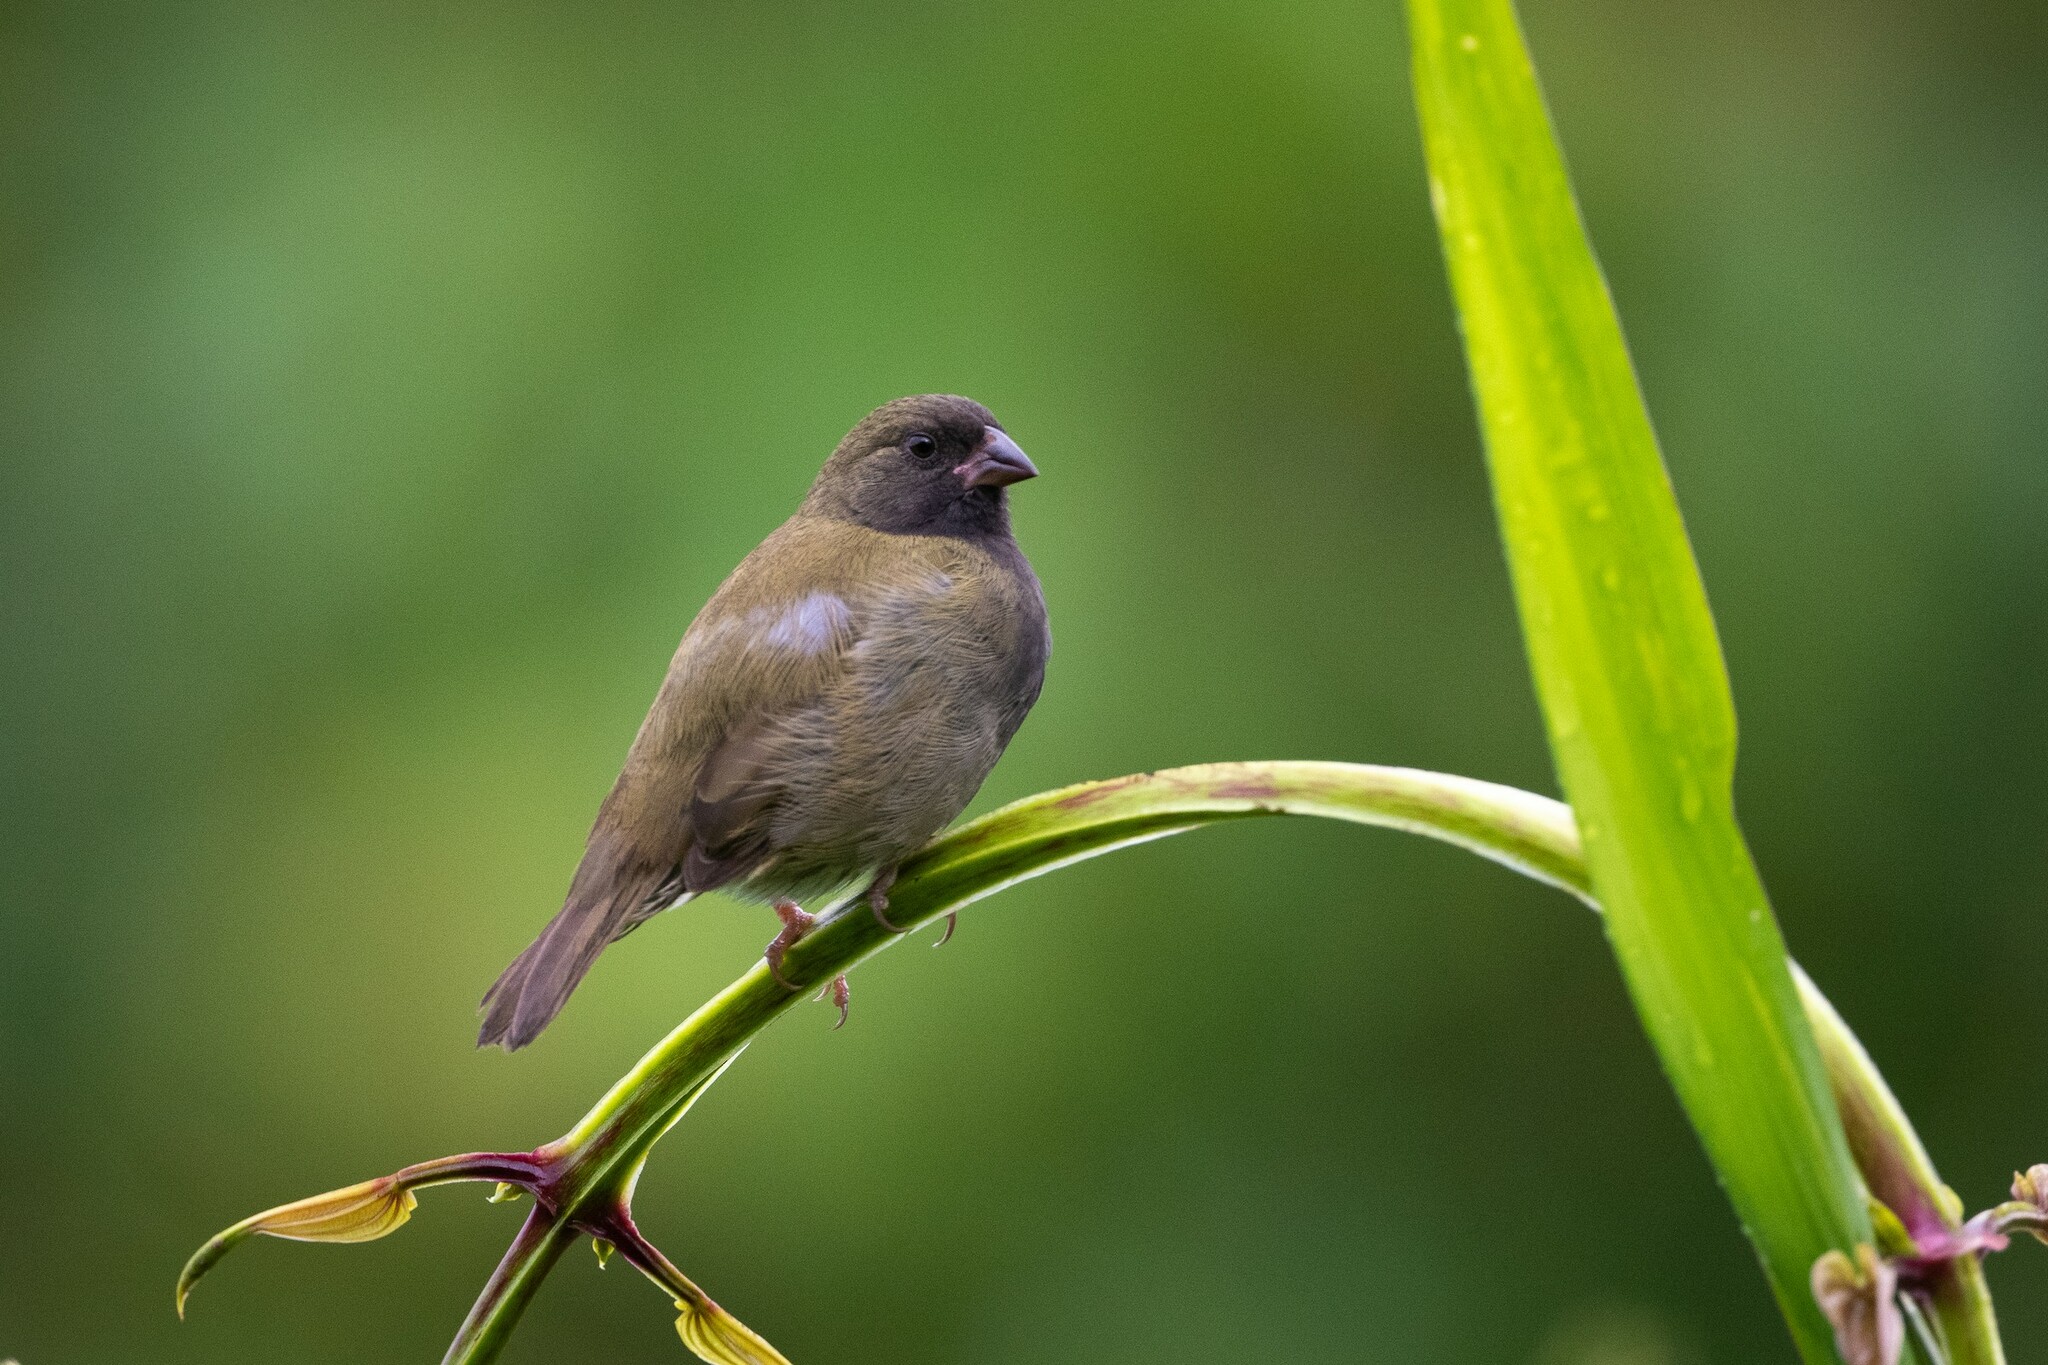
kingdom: Animalia
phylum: Chordata
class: Aves
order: Passeriformes
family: Thraupidae
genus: Melanospiza
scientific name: Melanospiza bicolor
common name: Black-faced grassquit
